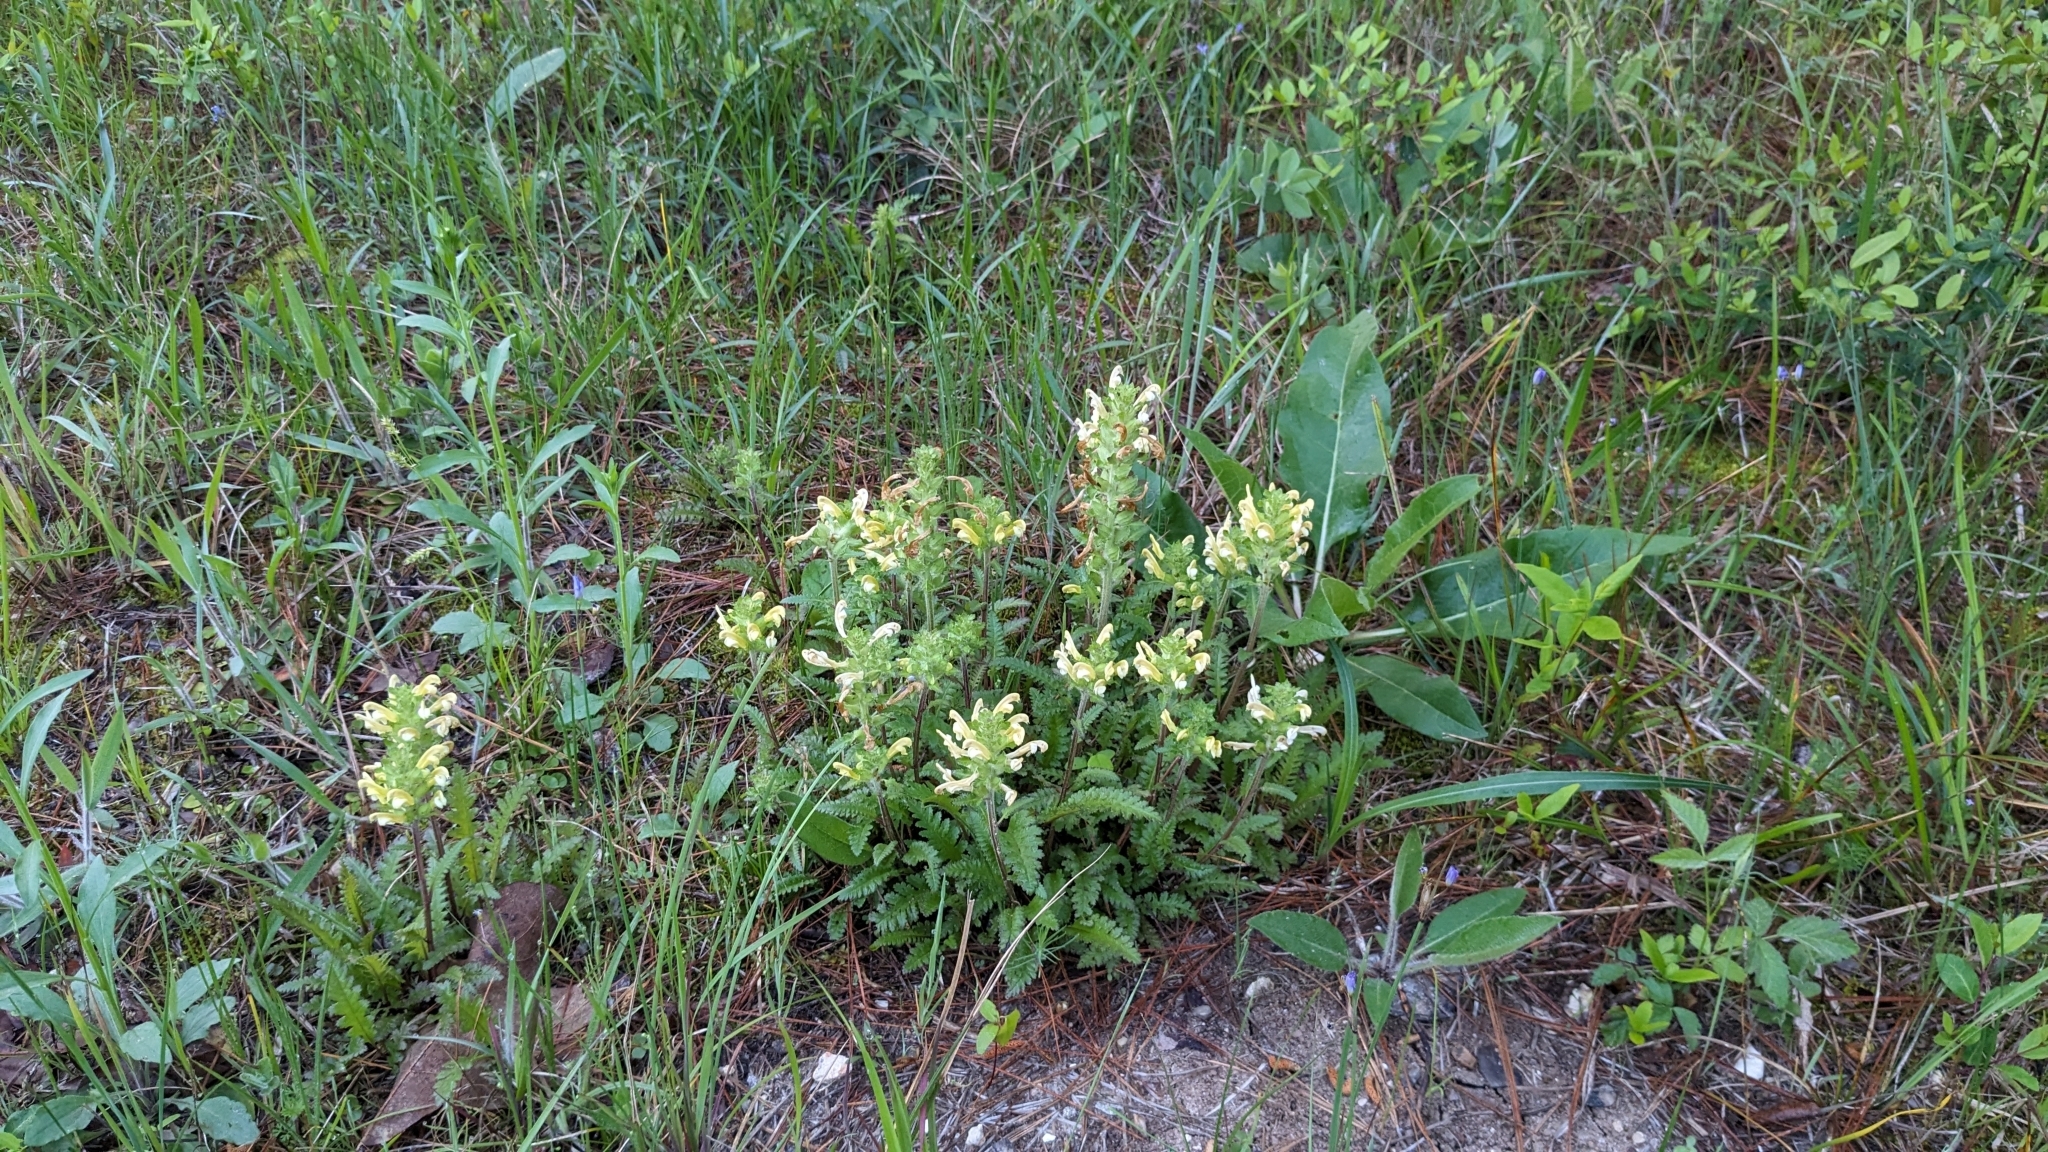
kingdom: Plantae
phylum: Tracheophyta
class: Magnoliopsida
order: Lamiales
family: Orobanchaceae
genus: Pedicularis
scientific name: Pedicularis canadensis
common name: Early lousewort
